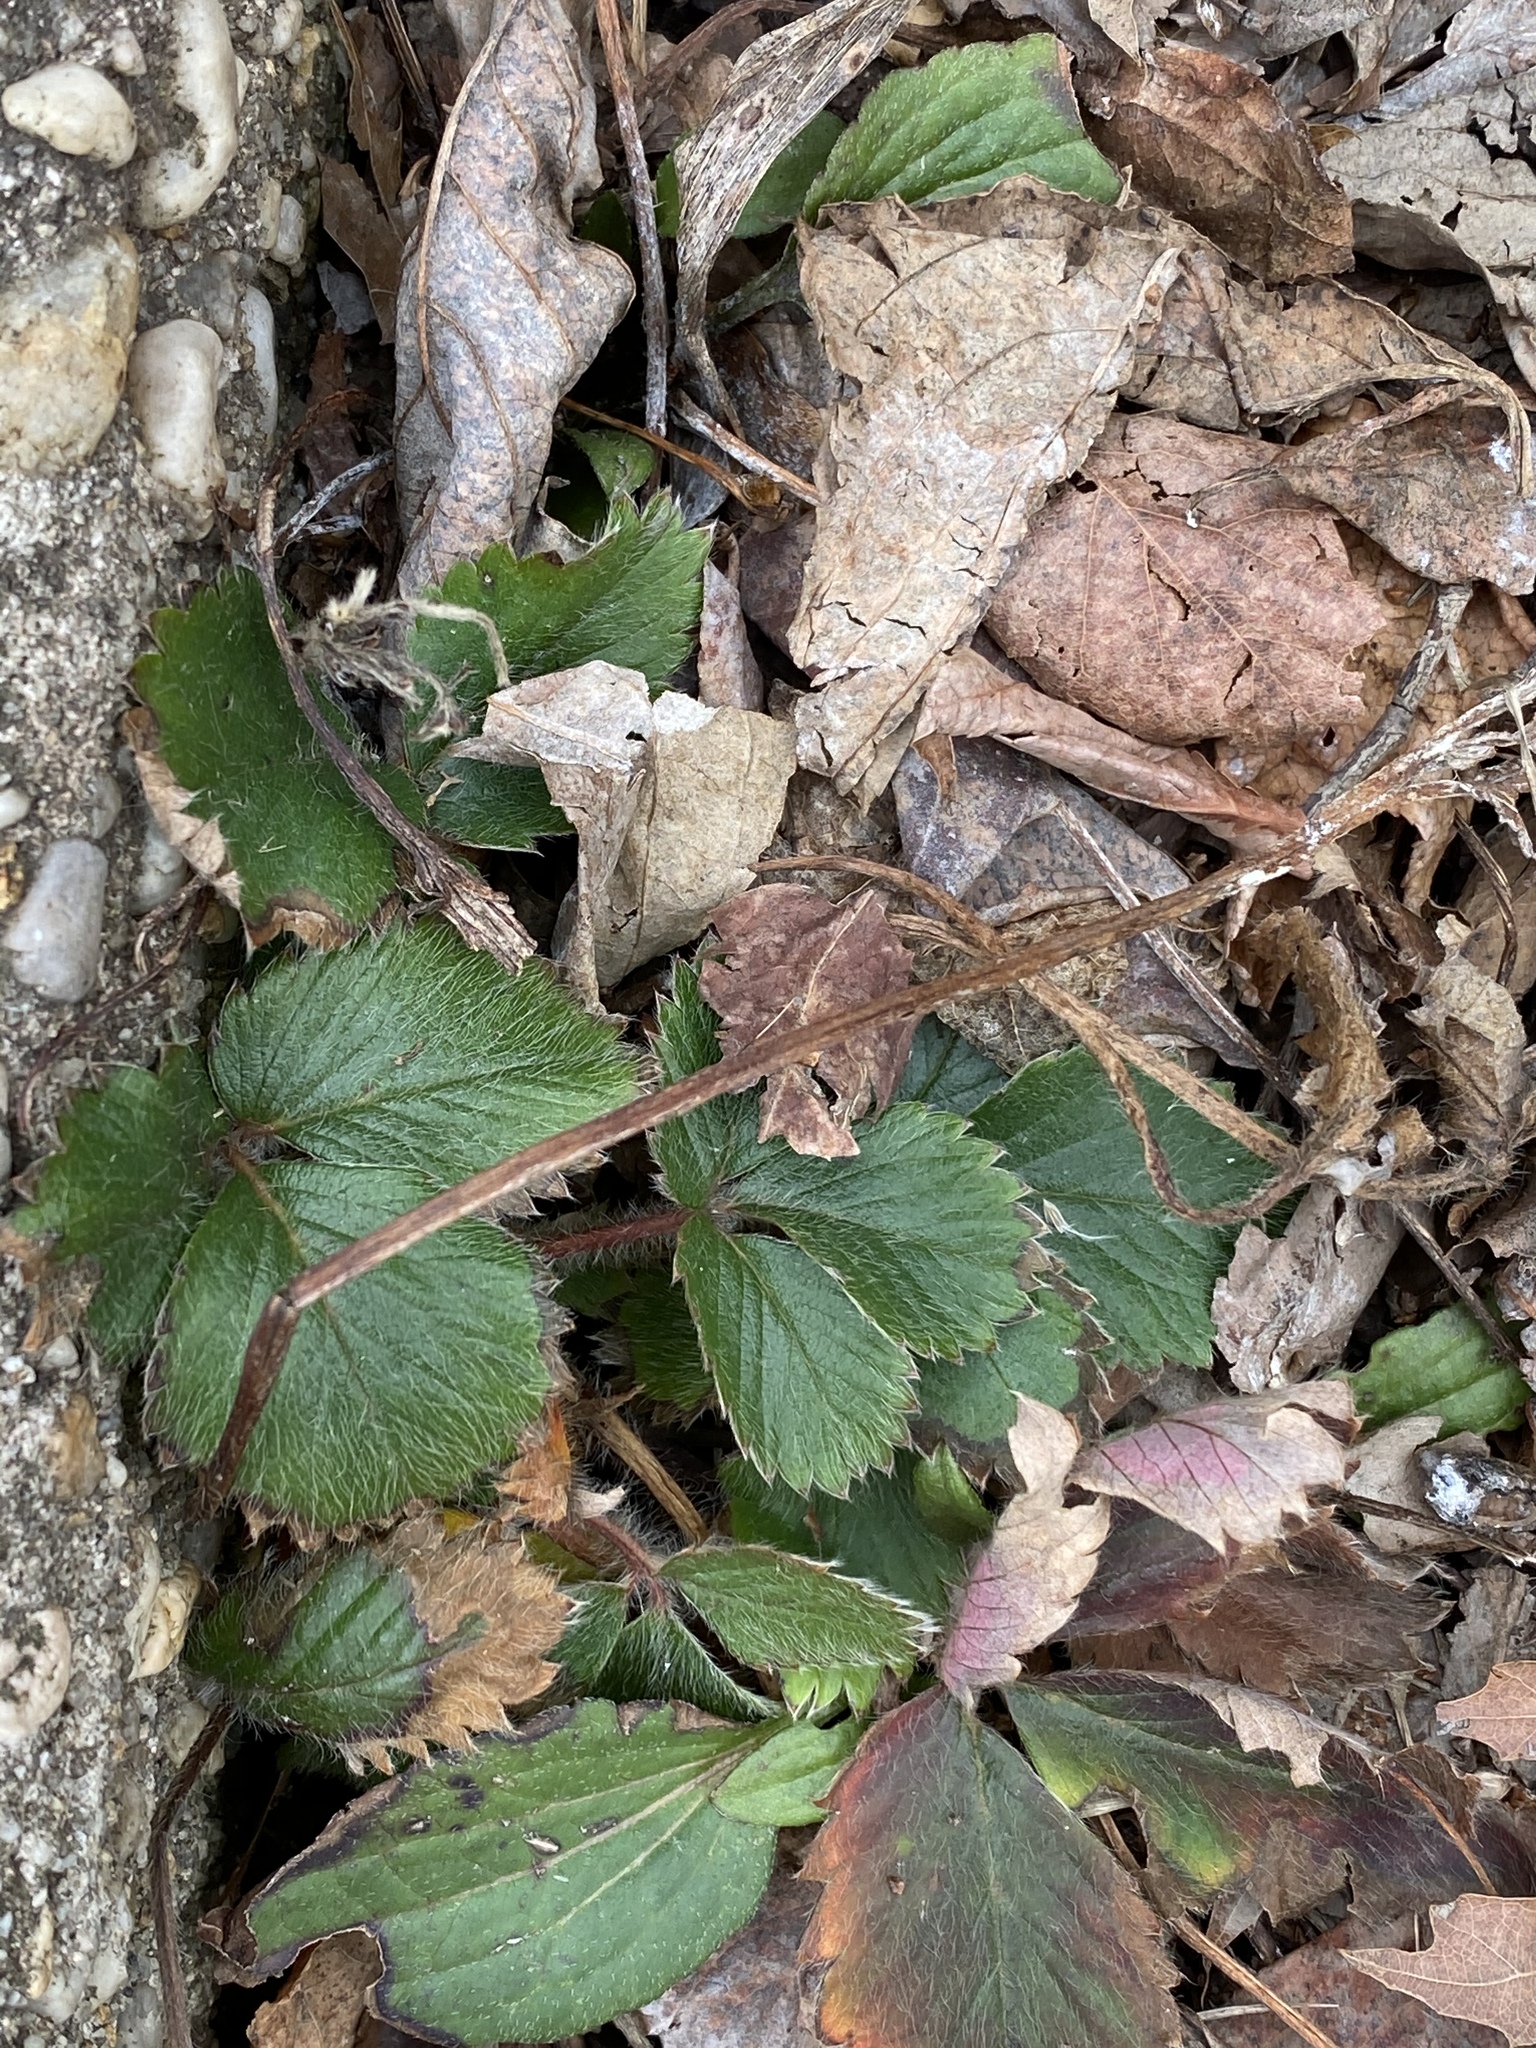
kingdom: Plantae
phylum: Tracheophyta
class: Magnoliopsida
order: Rosales
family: Rosaceae
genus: Fragaria
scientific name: Fragaria virginiana
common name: Thickleaved wild strawberry
